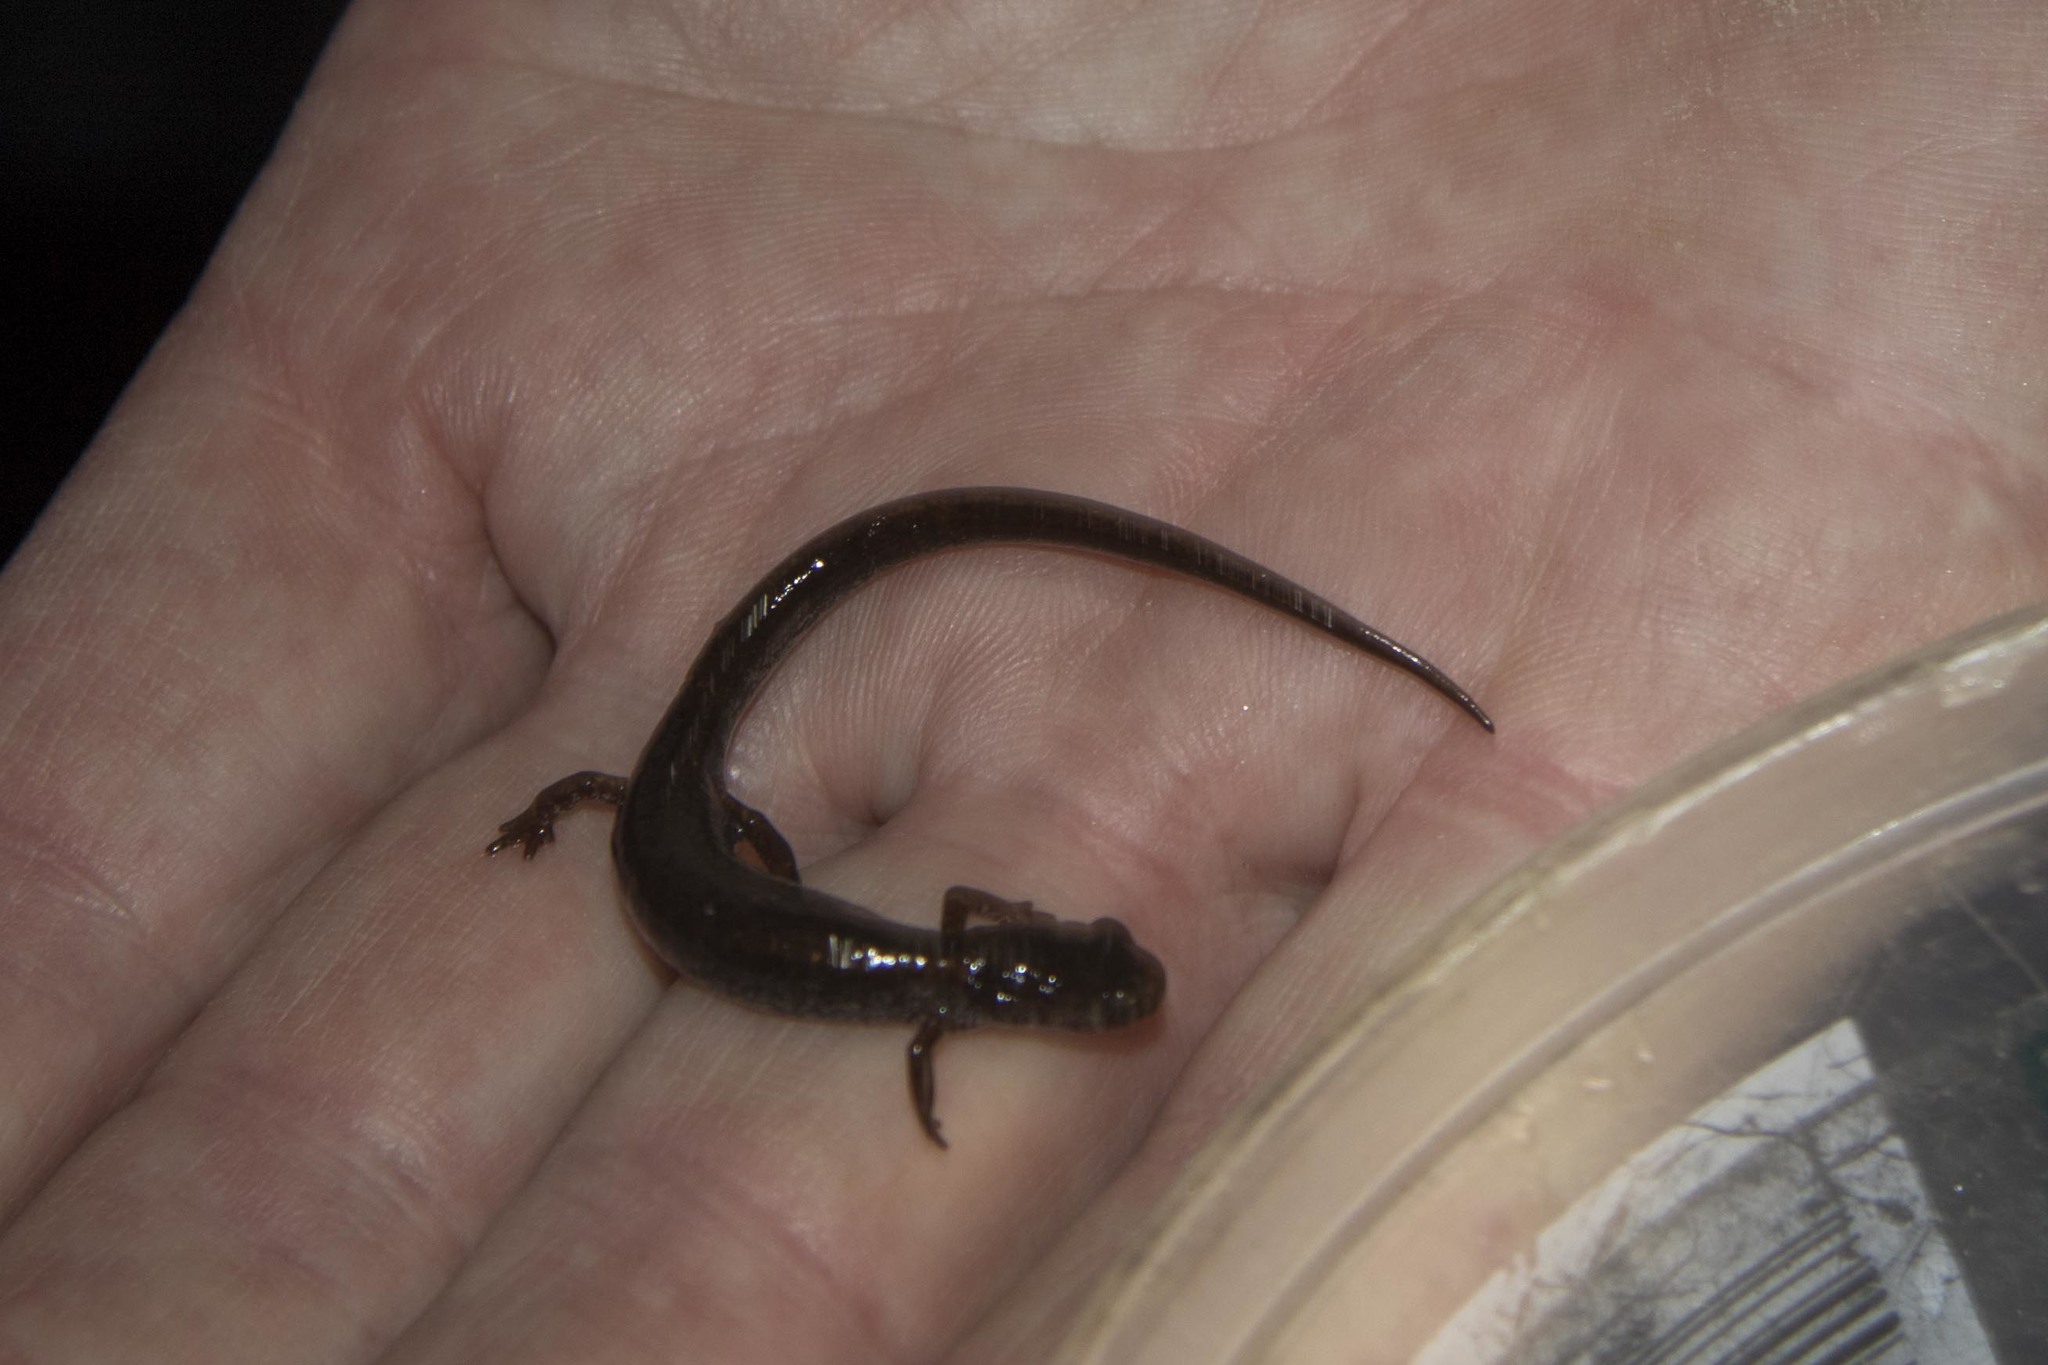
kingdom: Animalia
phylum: Chordata
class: Amphibia
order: Caudata
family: Plethodontidae
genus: Hemidactylium
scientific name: Hemidactylium scutatum
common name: Four-toed salamander
